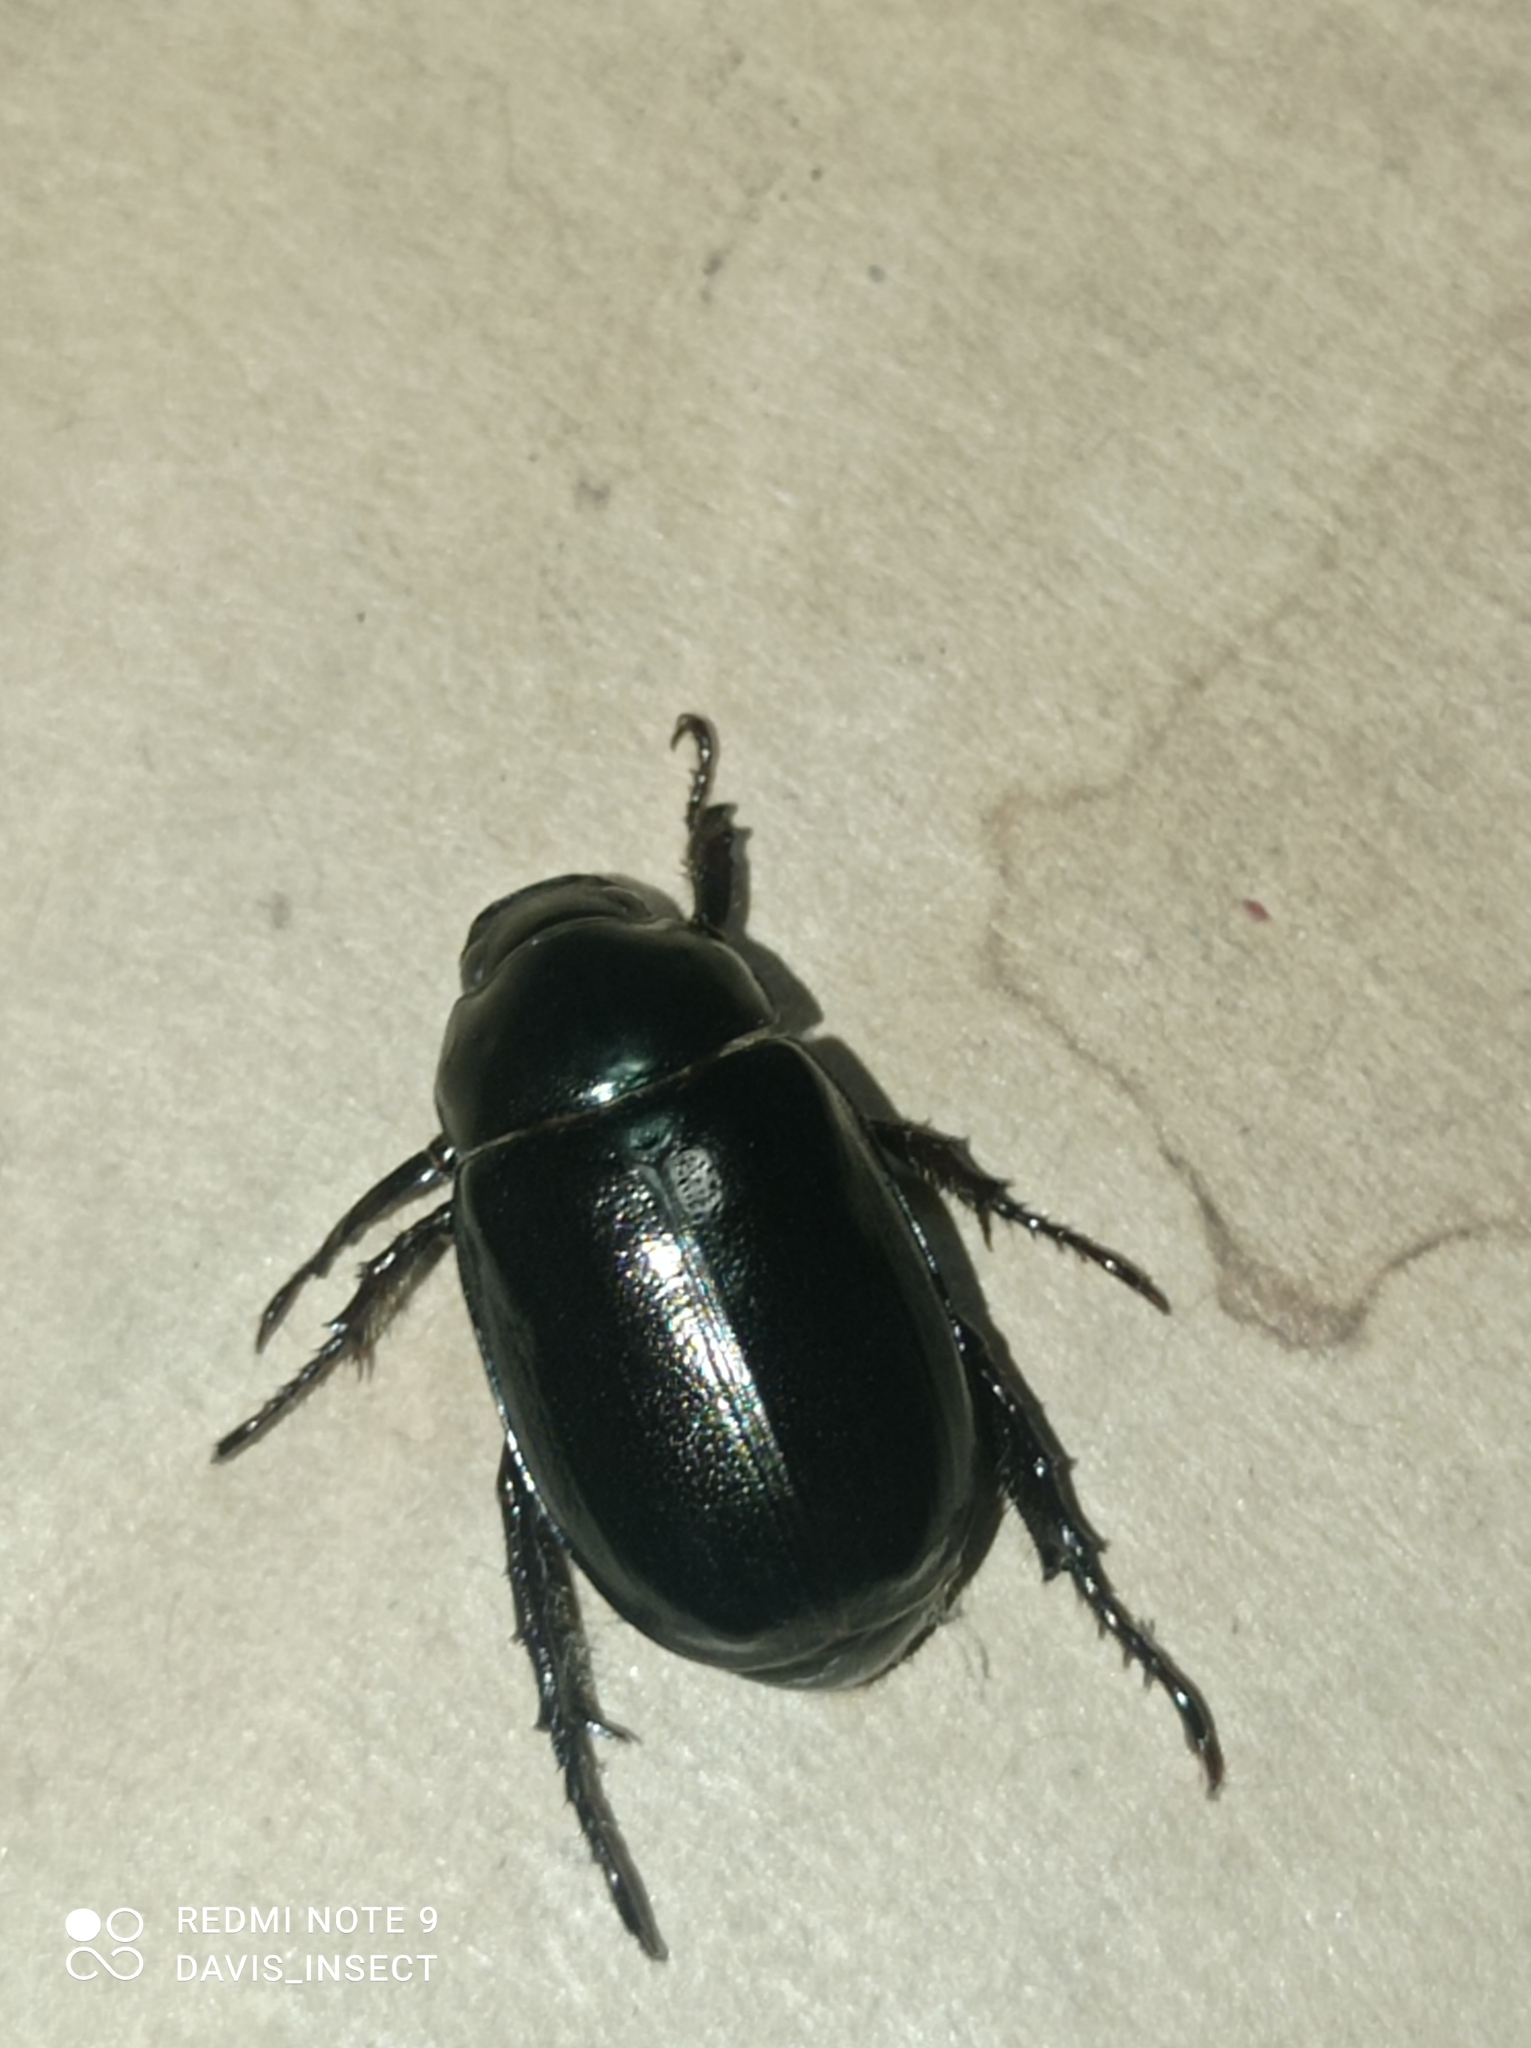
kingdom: Animalia
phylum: Arthropoda
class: Insecta
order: Coleoptera
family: Scarabaeidae
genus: Anomala
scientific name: Anomala antiqua
